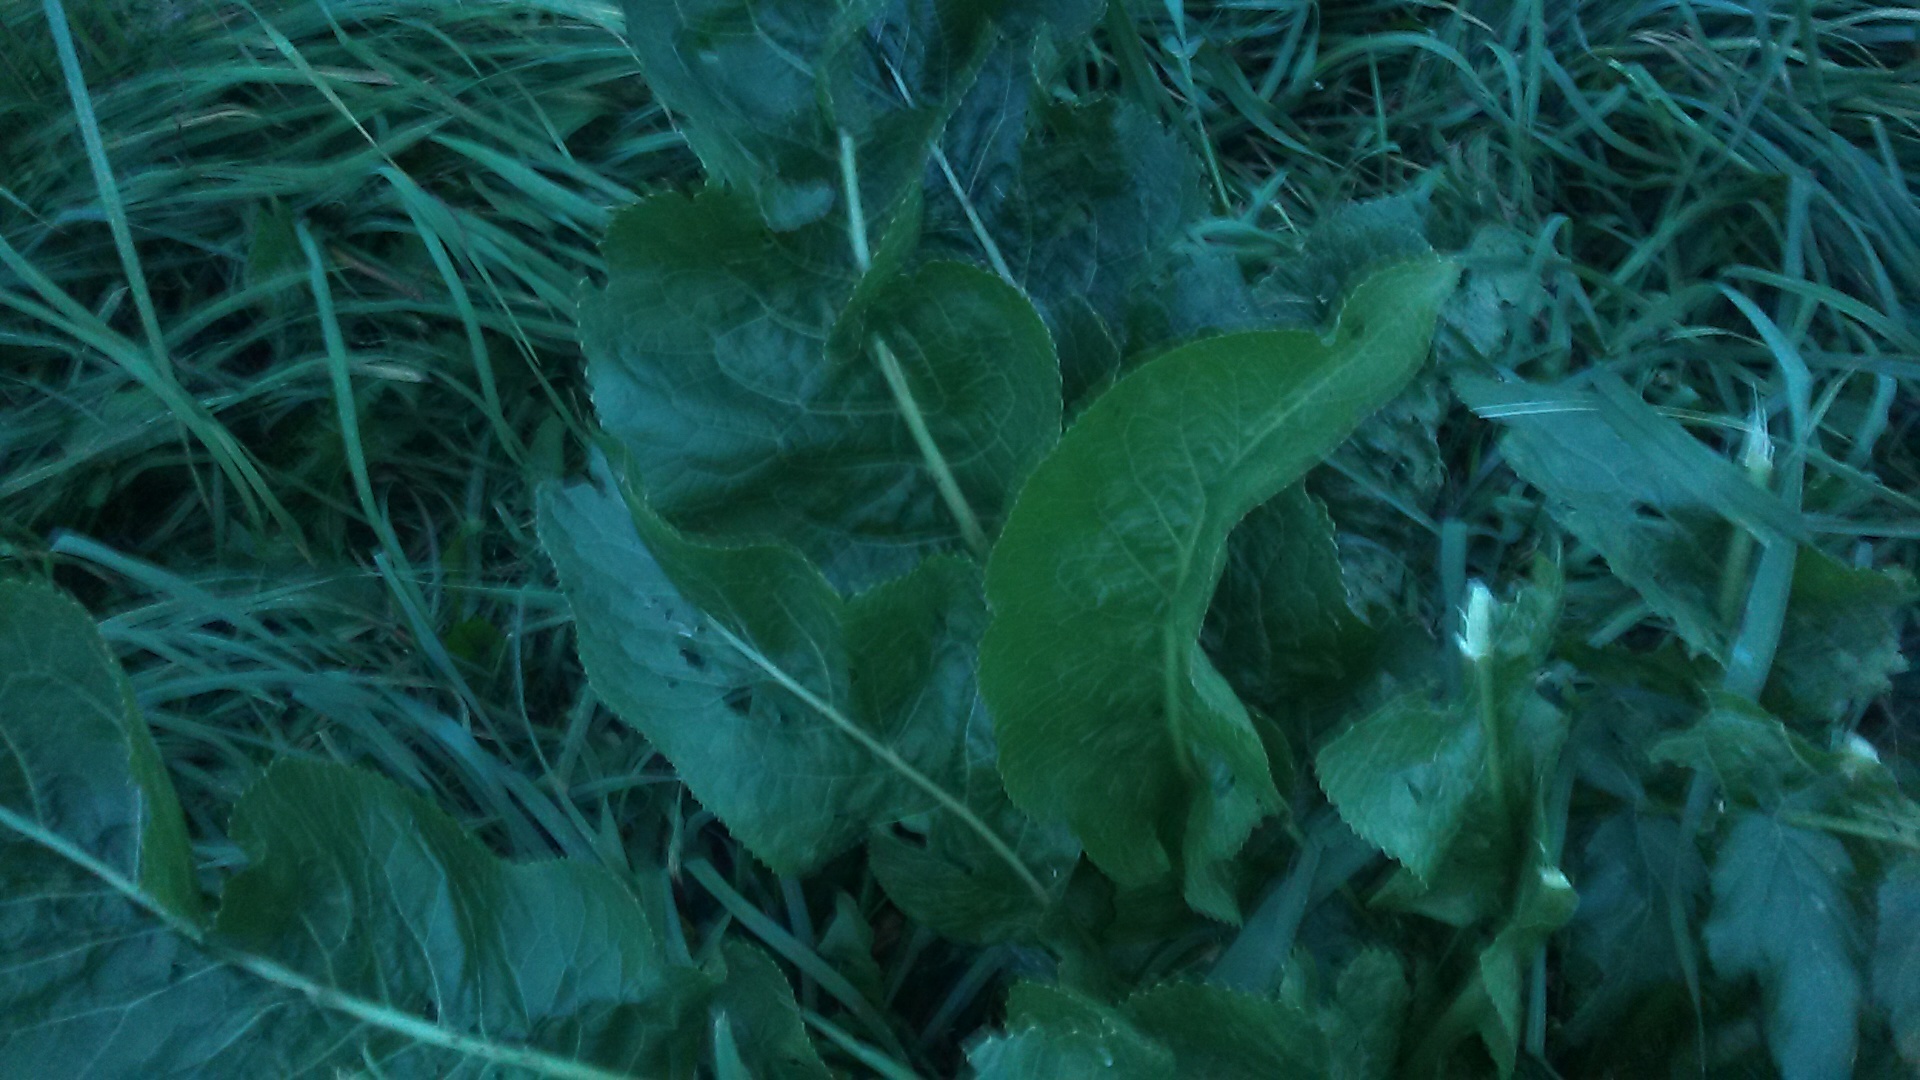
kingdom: Plantae
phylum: Tracheophyta
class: Magnoliopsida
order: Brassicales
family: Brassicaceae
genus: Armoracia
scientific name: Armoracia rusticana
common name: Horseradish
